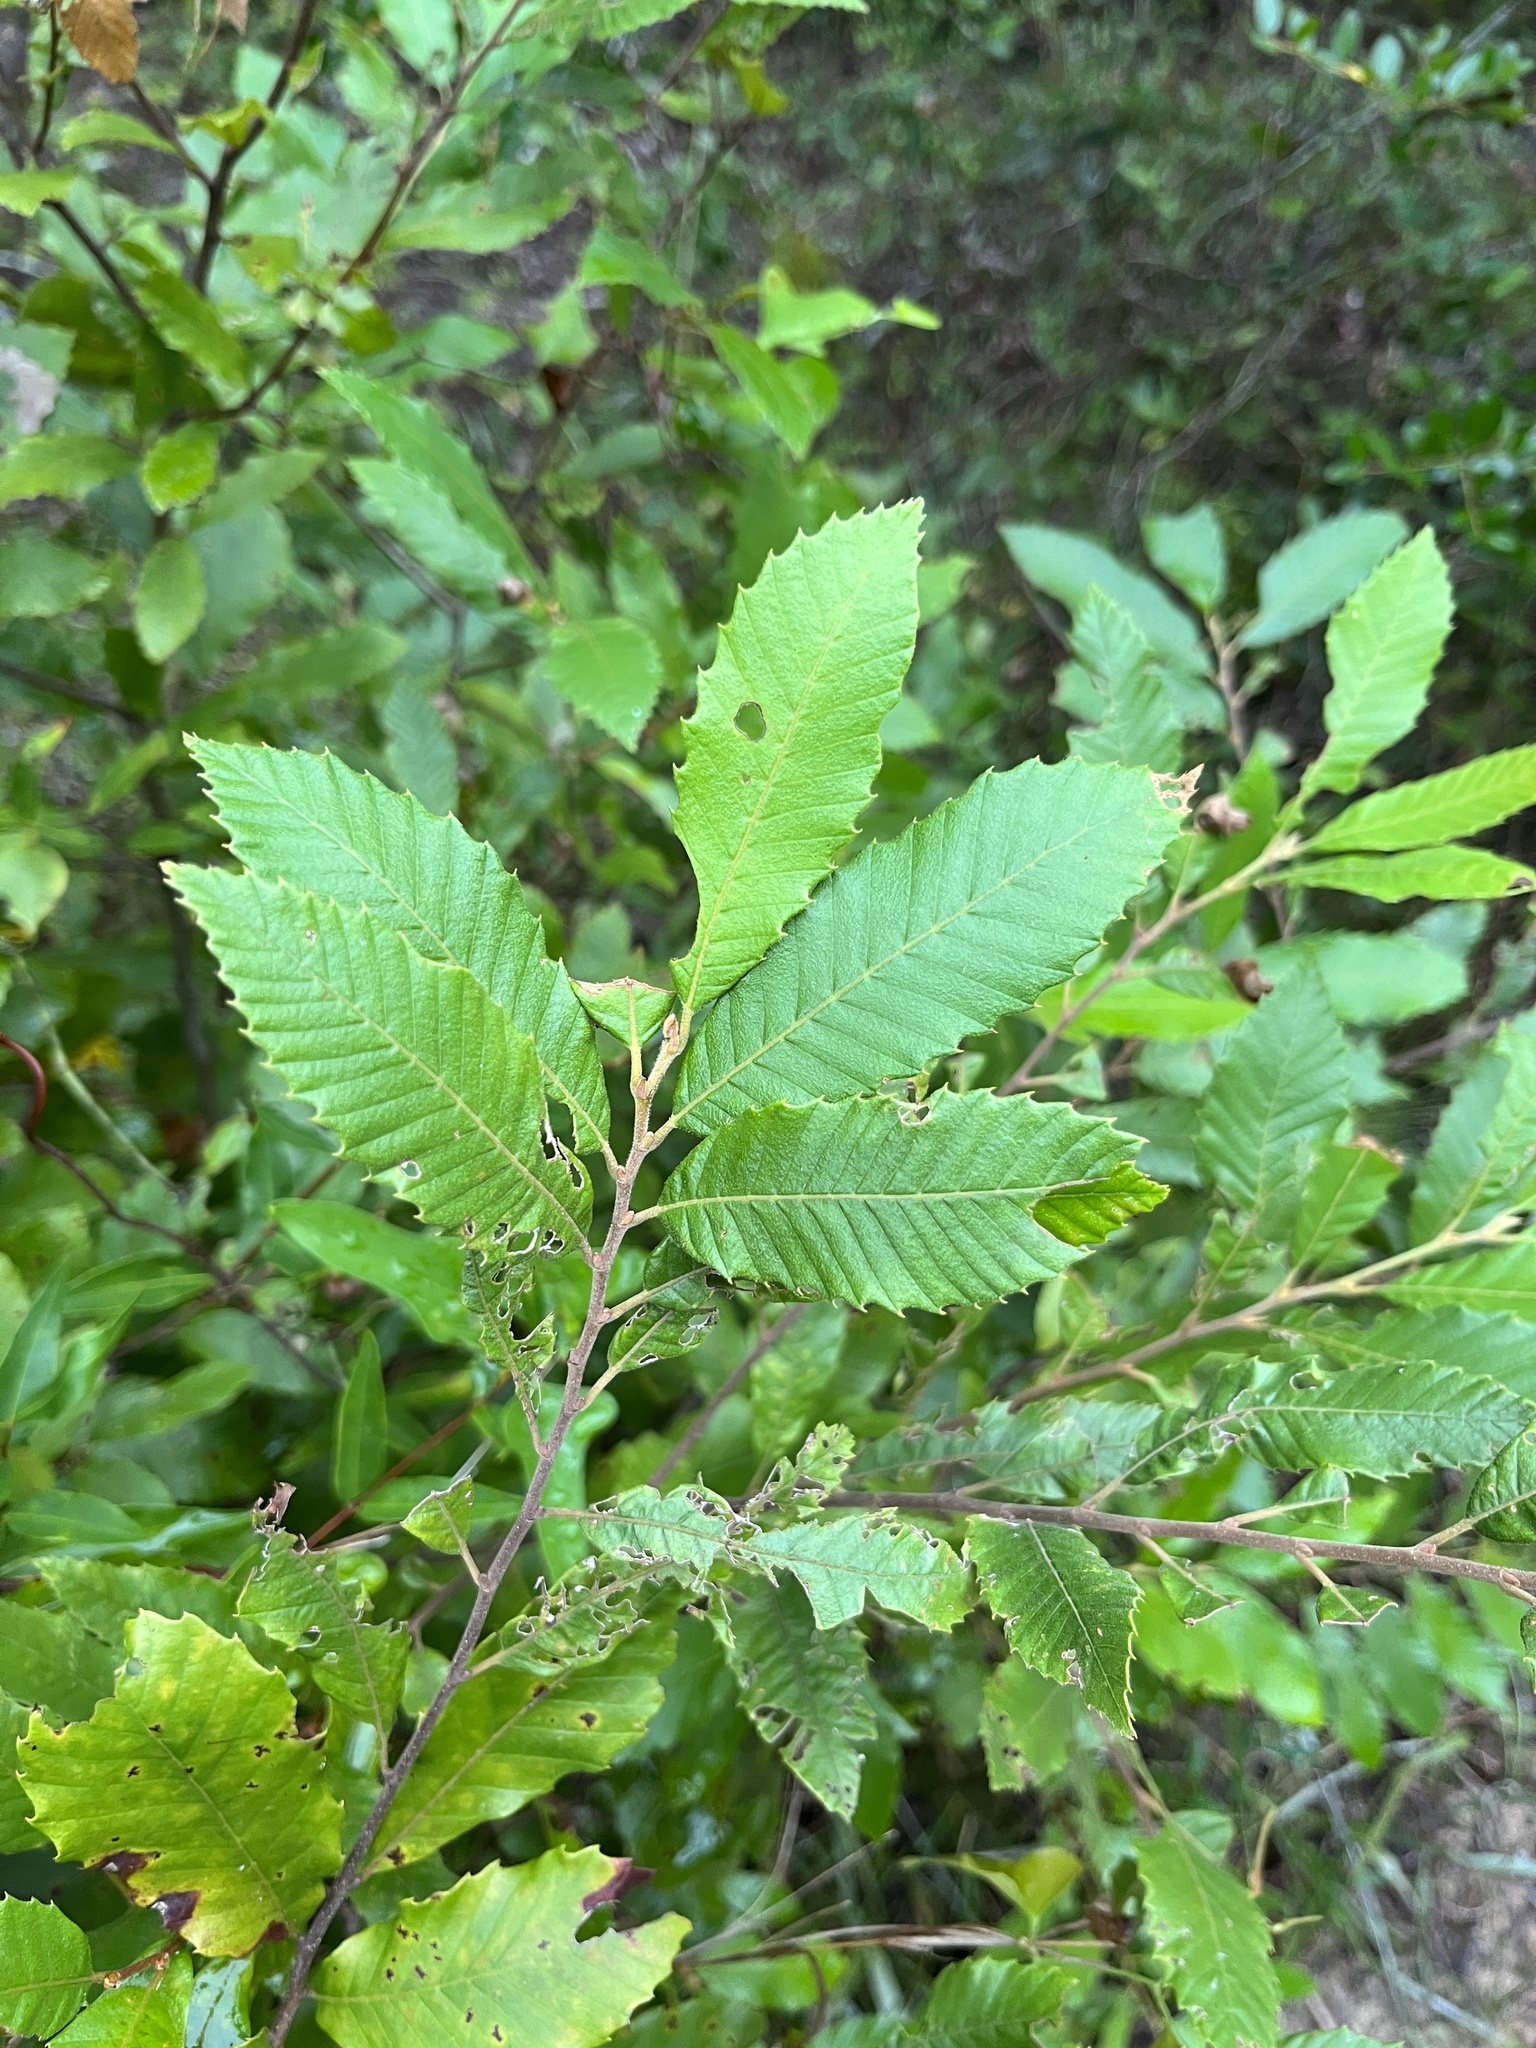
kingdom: Plantae
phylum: Tracheophyta
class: Magnoliopsida
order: Fagales
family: Fagaceae
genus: Castanea
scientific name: Castanea pumila
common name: Chinkapin
